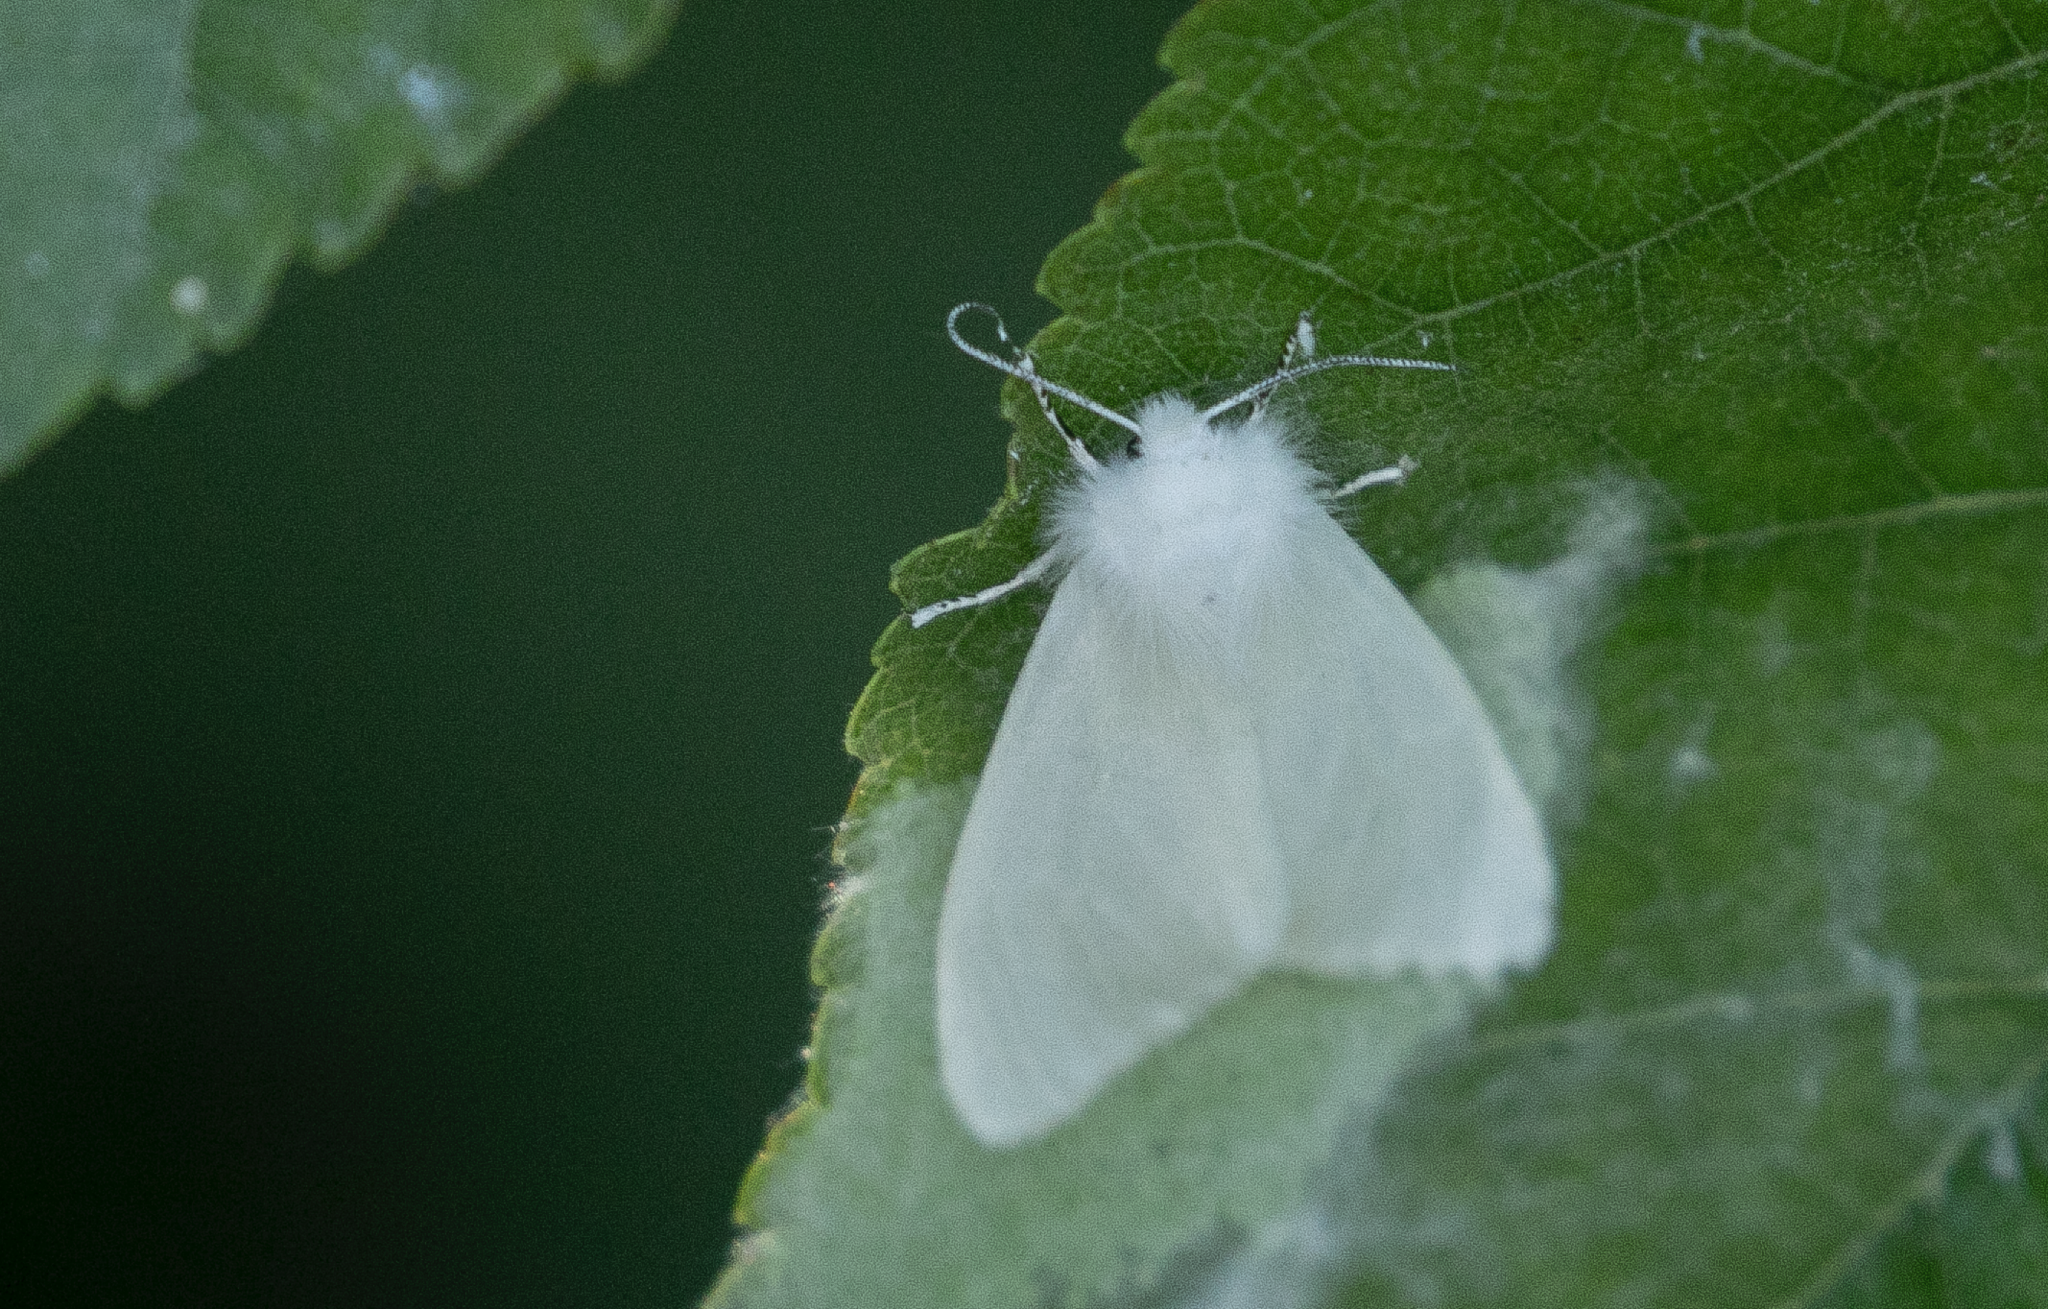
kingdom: Animalia
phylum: Arthropoda
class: Insecta
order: Lepidoptera
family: Erebidae
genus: Hyphantria
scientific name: Hyphantria cunea
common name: American white moth
